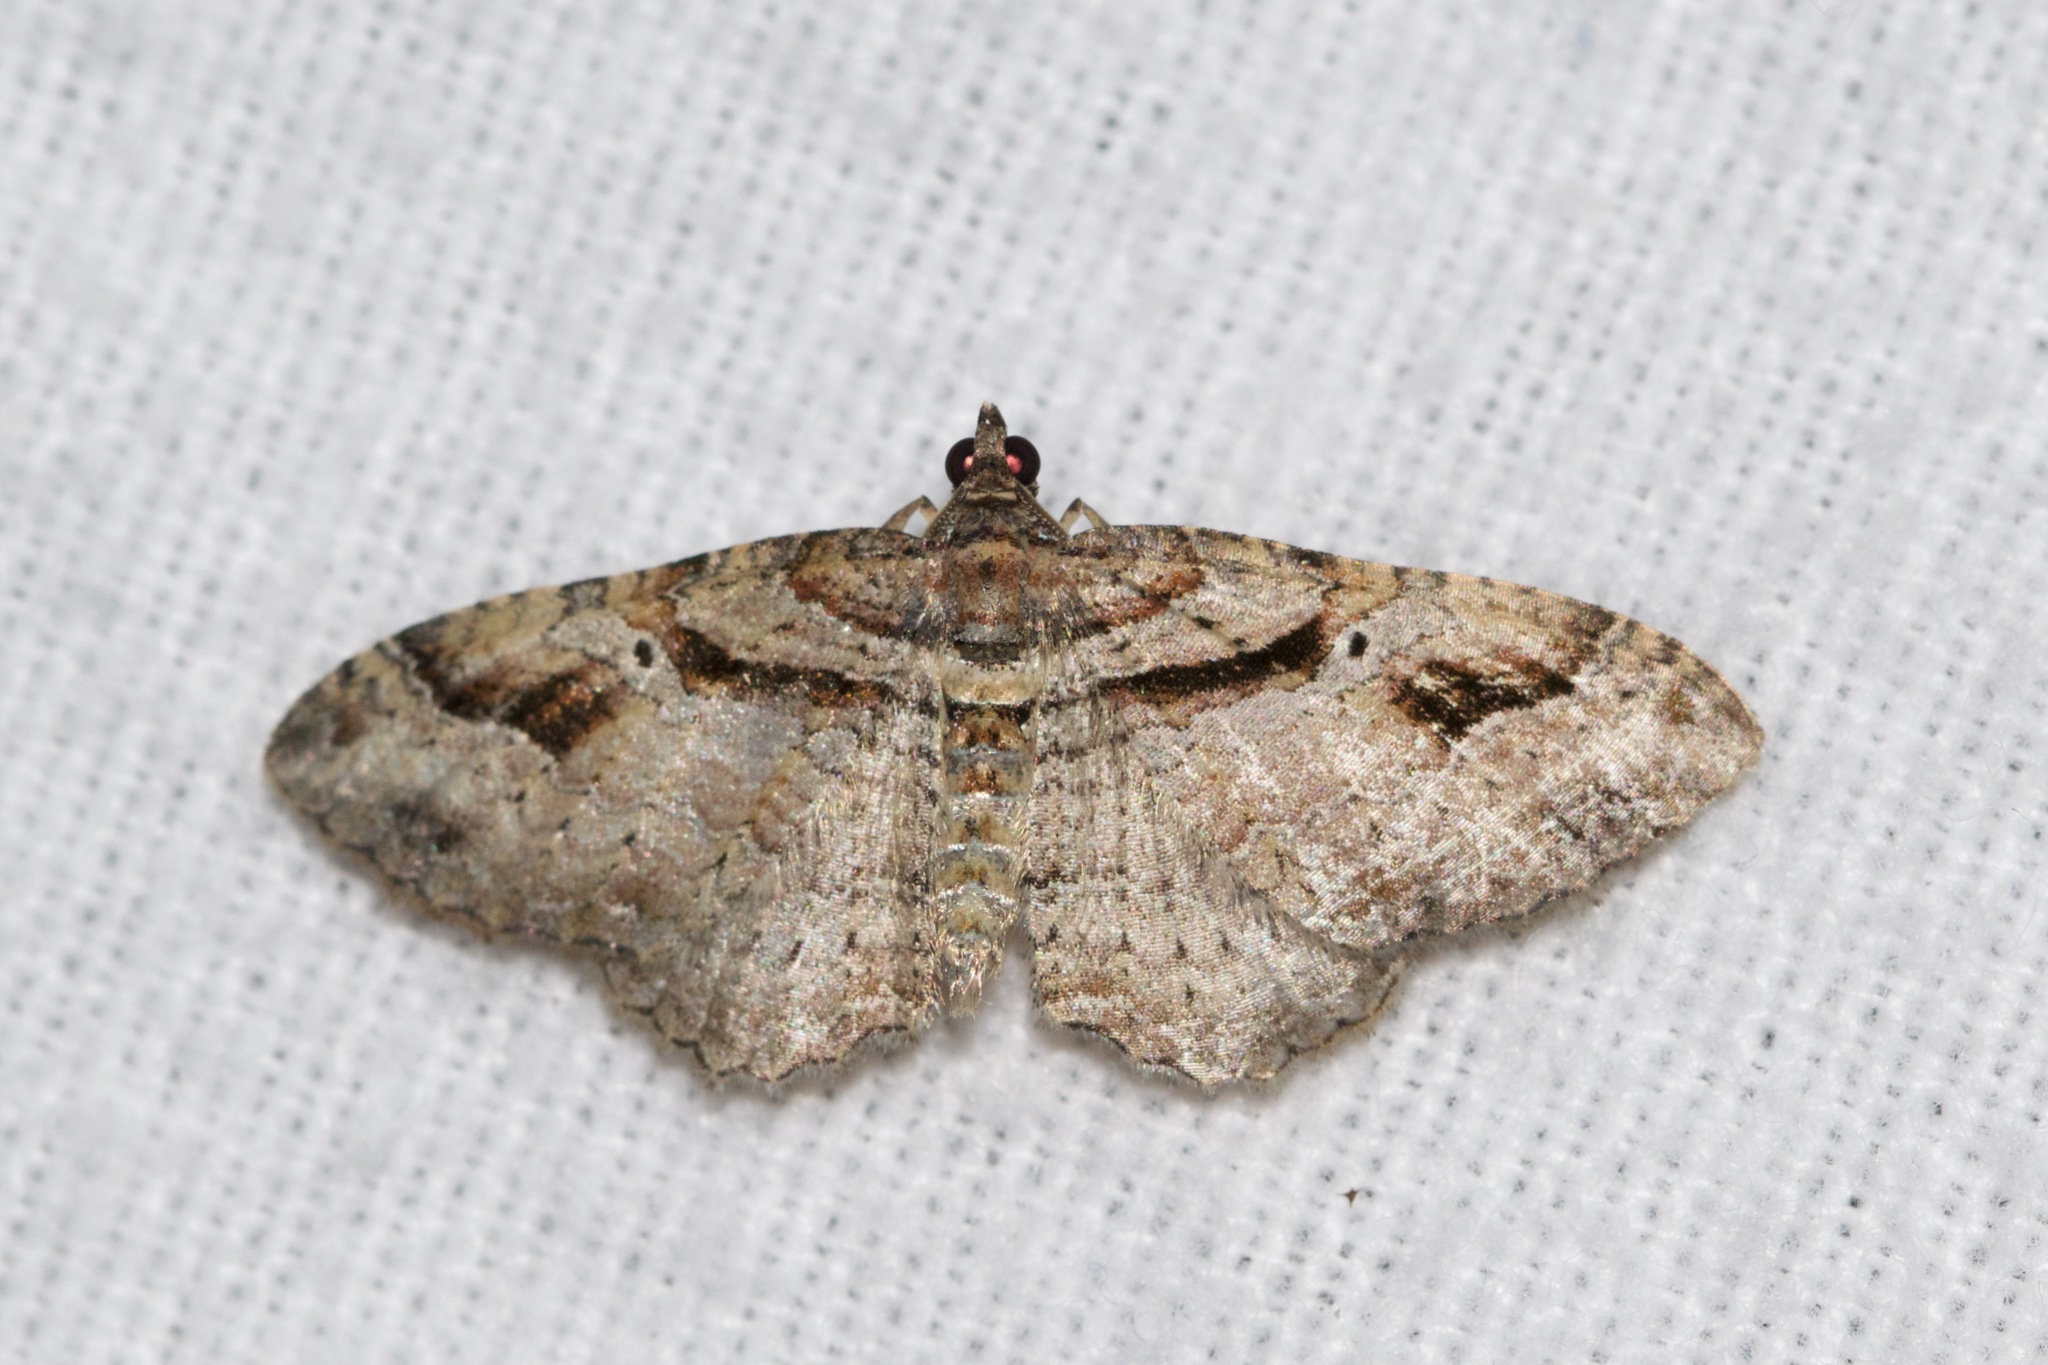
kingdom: Animalia
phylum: Arthropoda
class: Insecta
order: Lepidoptera
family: Geometridae
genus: Costaconvexa
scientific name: Costaconvexa centrostrigaria
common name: Bent-line carpet
